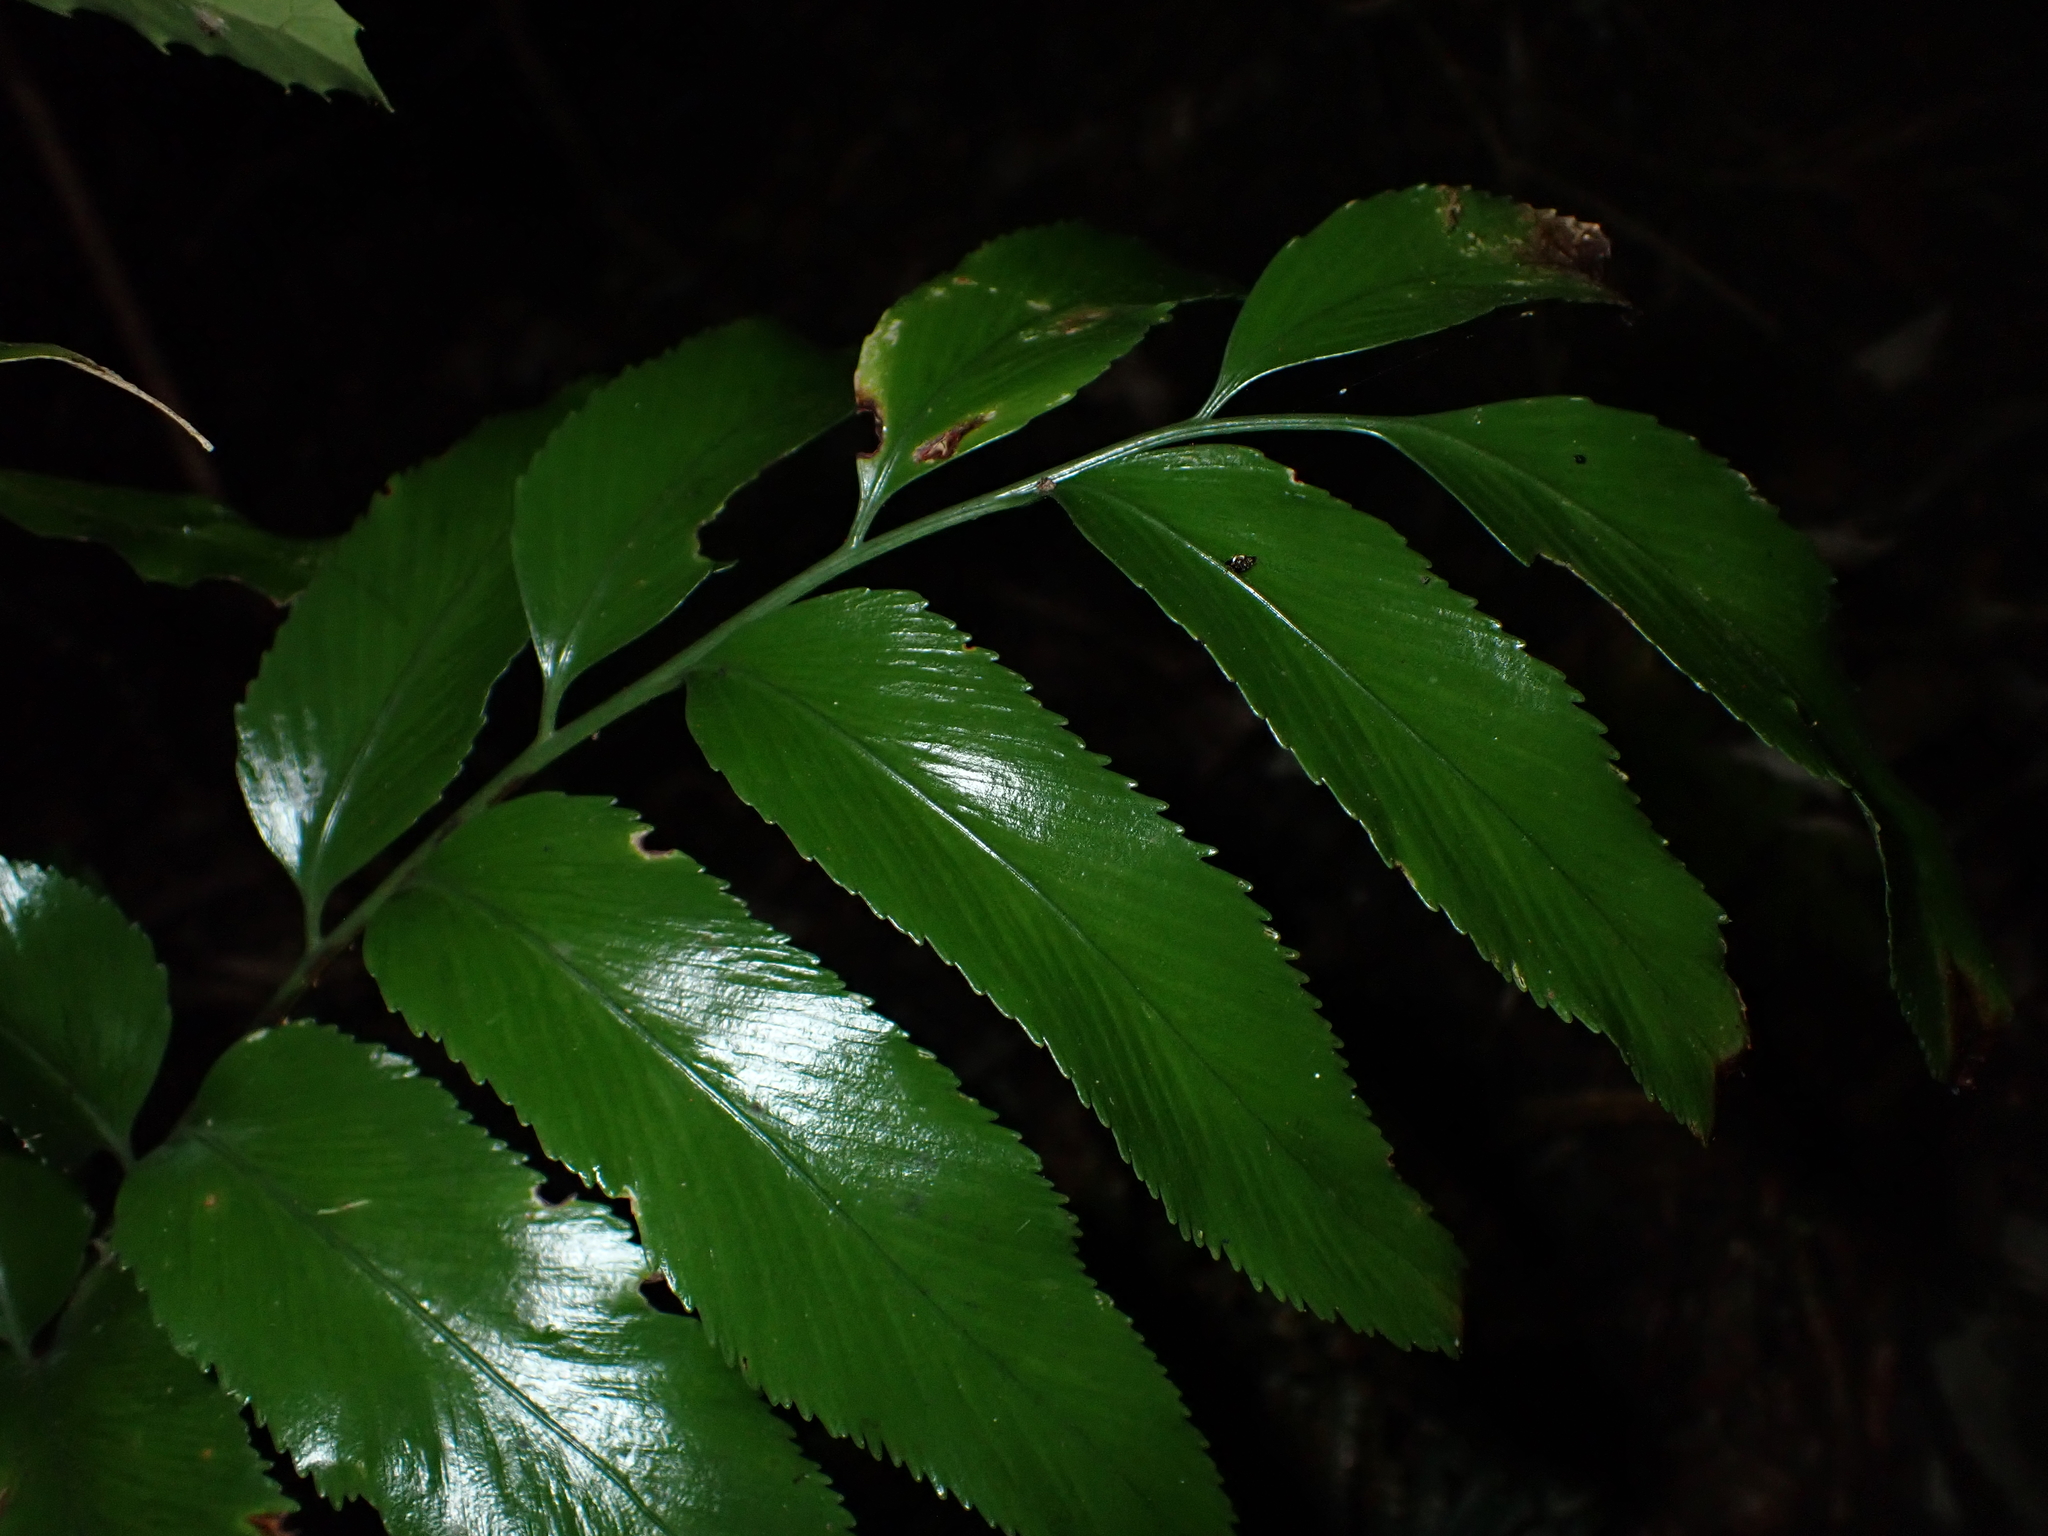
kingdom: Plantae
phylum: Tracheophyta
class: Polypodiopsida
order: Polypodiales
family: Aspleniaceae
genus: Asplenium
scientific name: Asplenium oblongifolium
